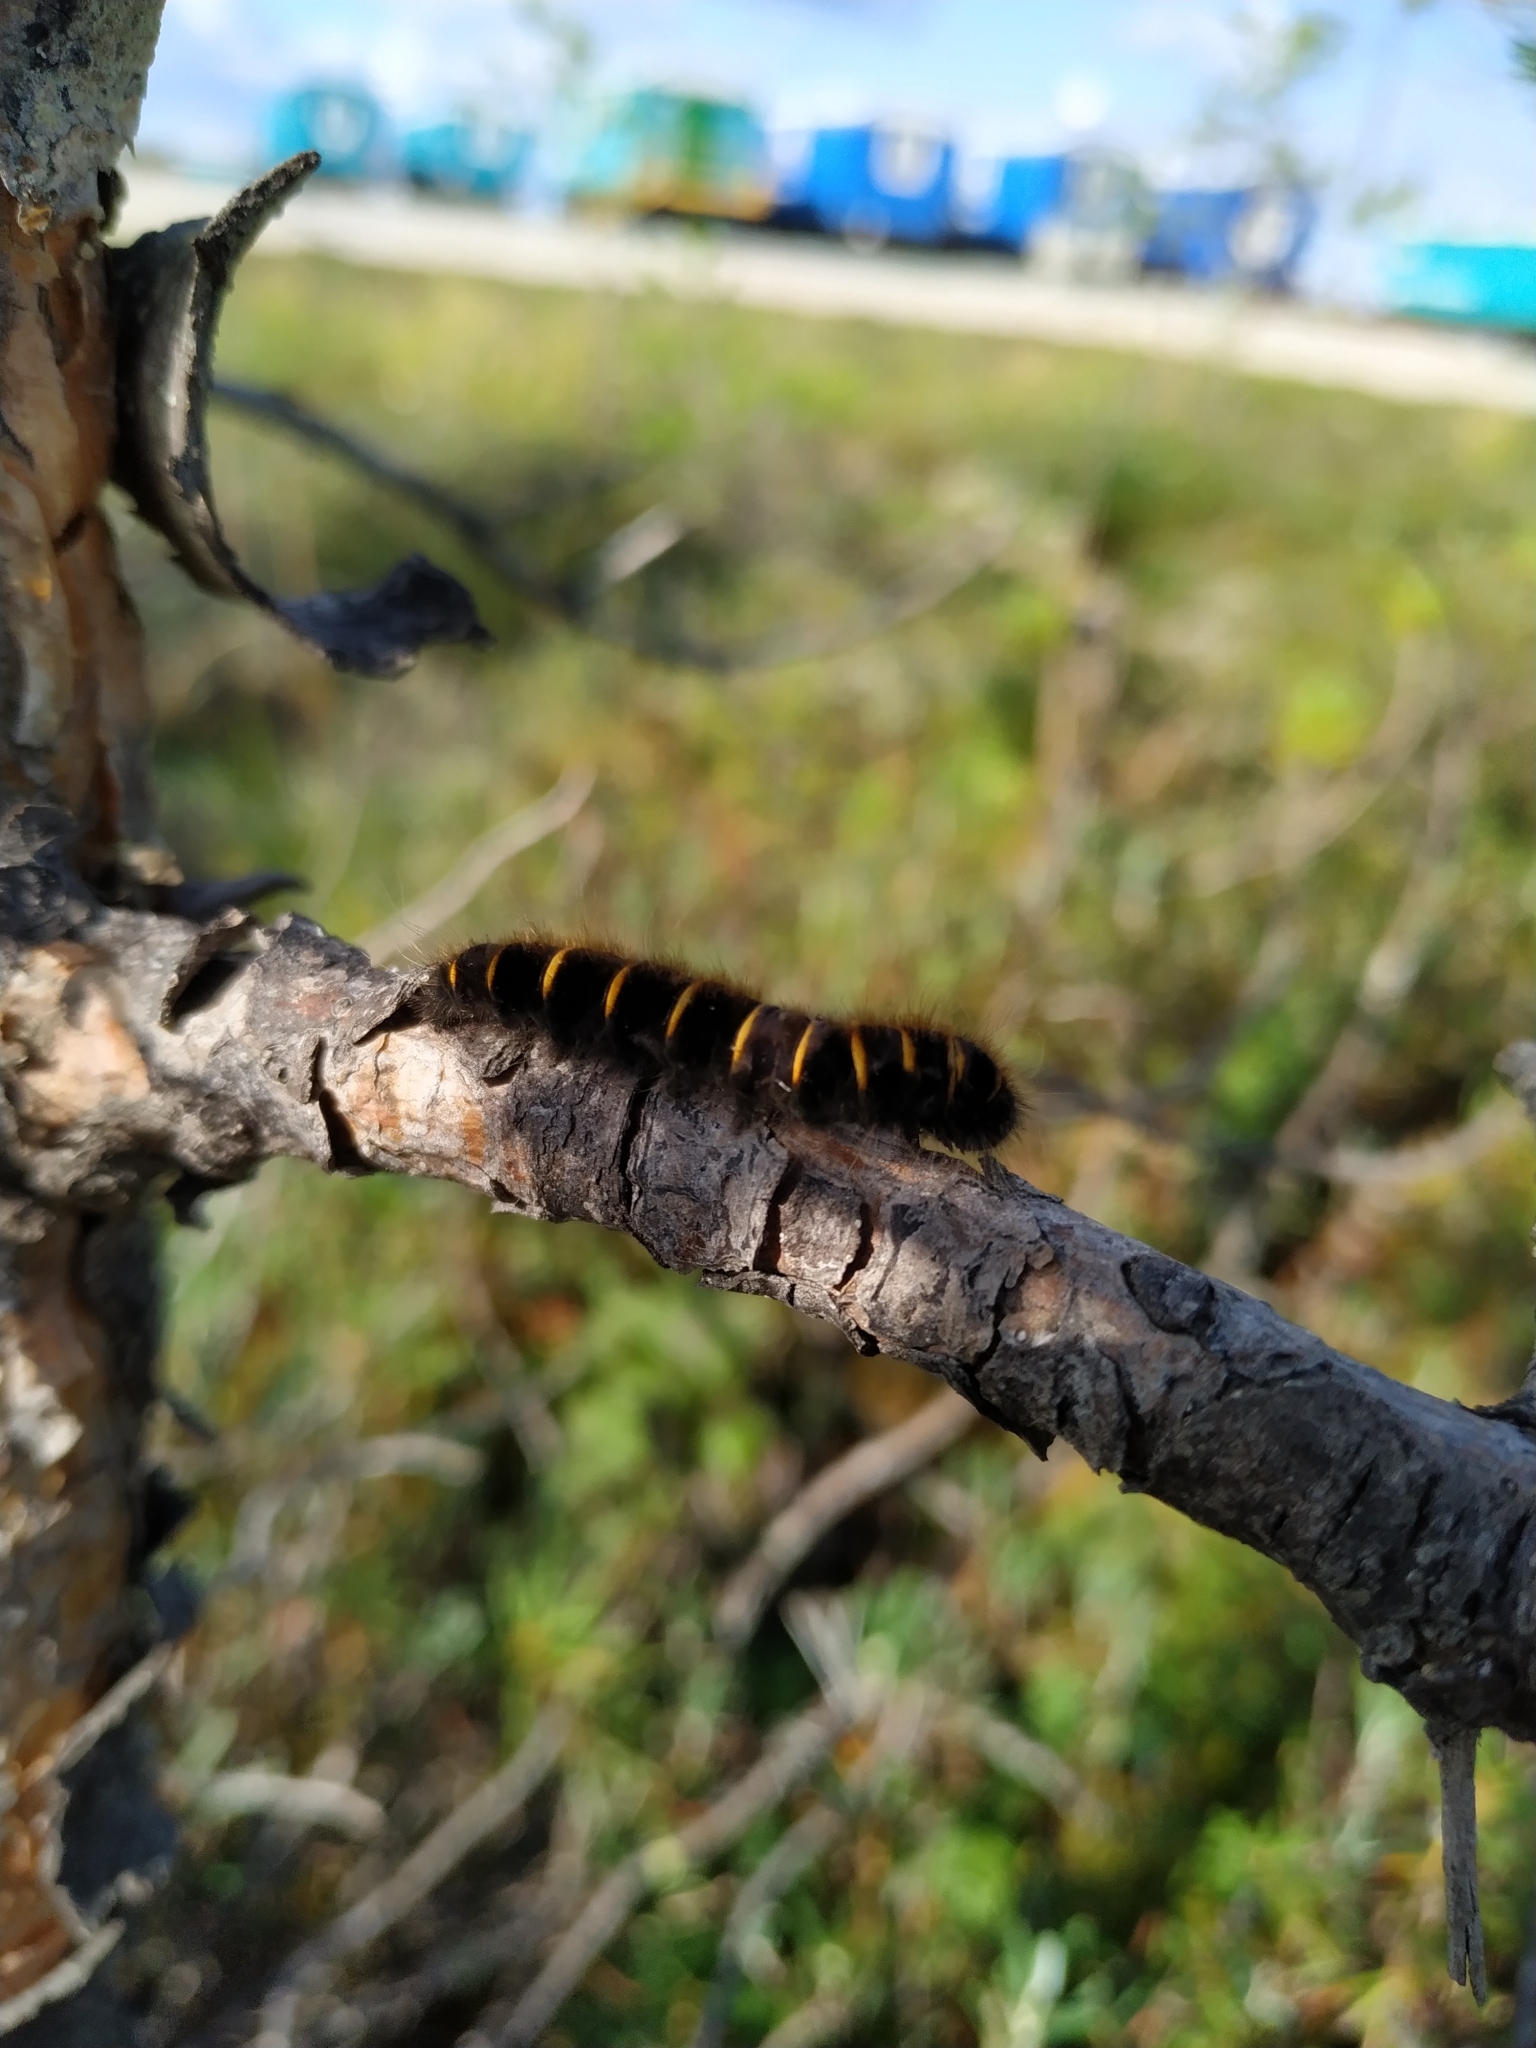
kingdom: Animalia
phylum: Arthropoda
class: Insecta
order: Lepidoptera
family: Lasiocampidae
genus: Macrothylacia
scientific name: Macrothylacia rubi
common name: Fox moth
